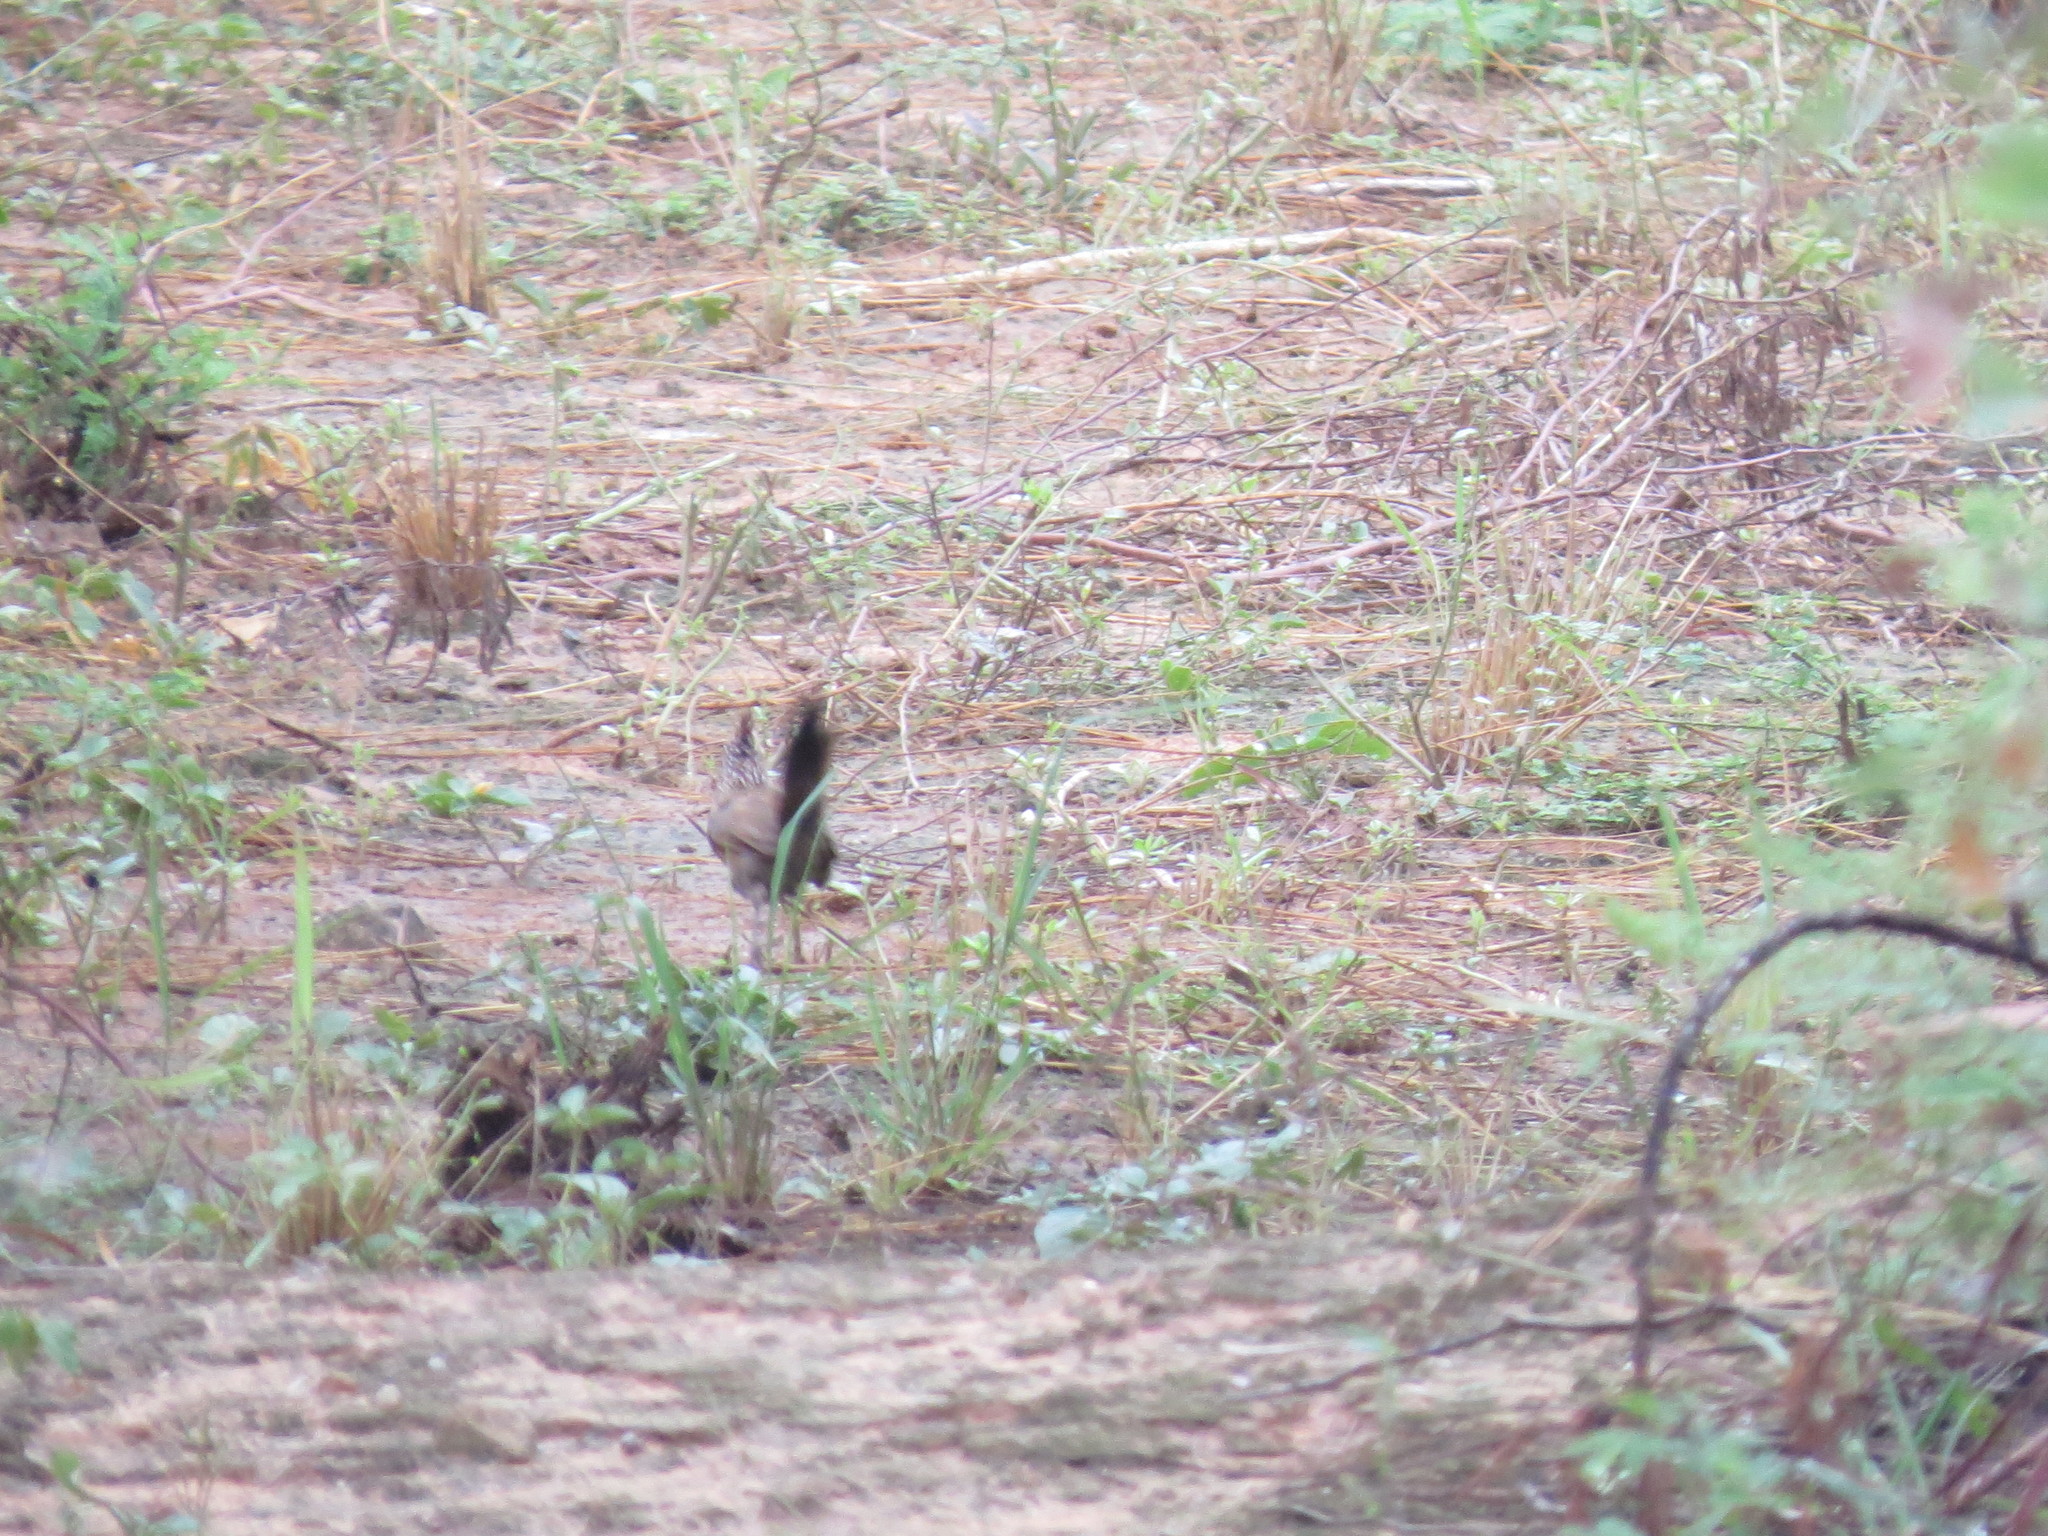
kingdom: Animalia
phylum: Chordata
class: Aves
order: Passeriformes
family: Rhinocryptidae
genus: Rhinocrypta
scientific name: Rhinocrypta lanceolata
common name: Crested gallito
